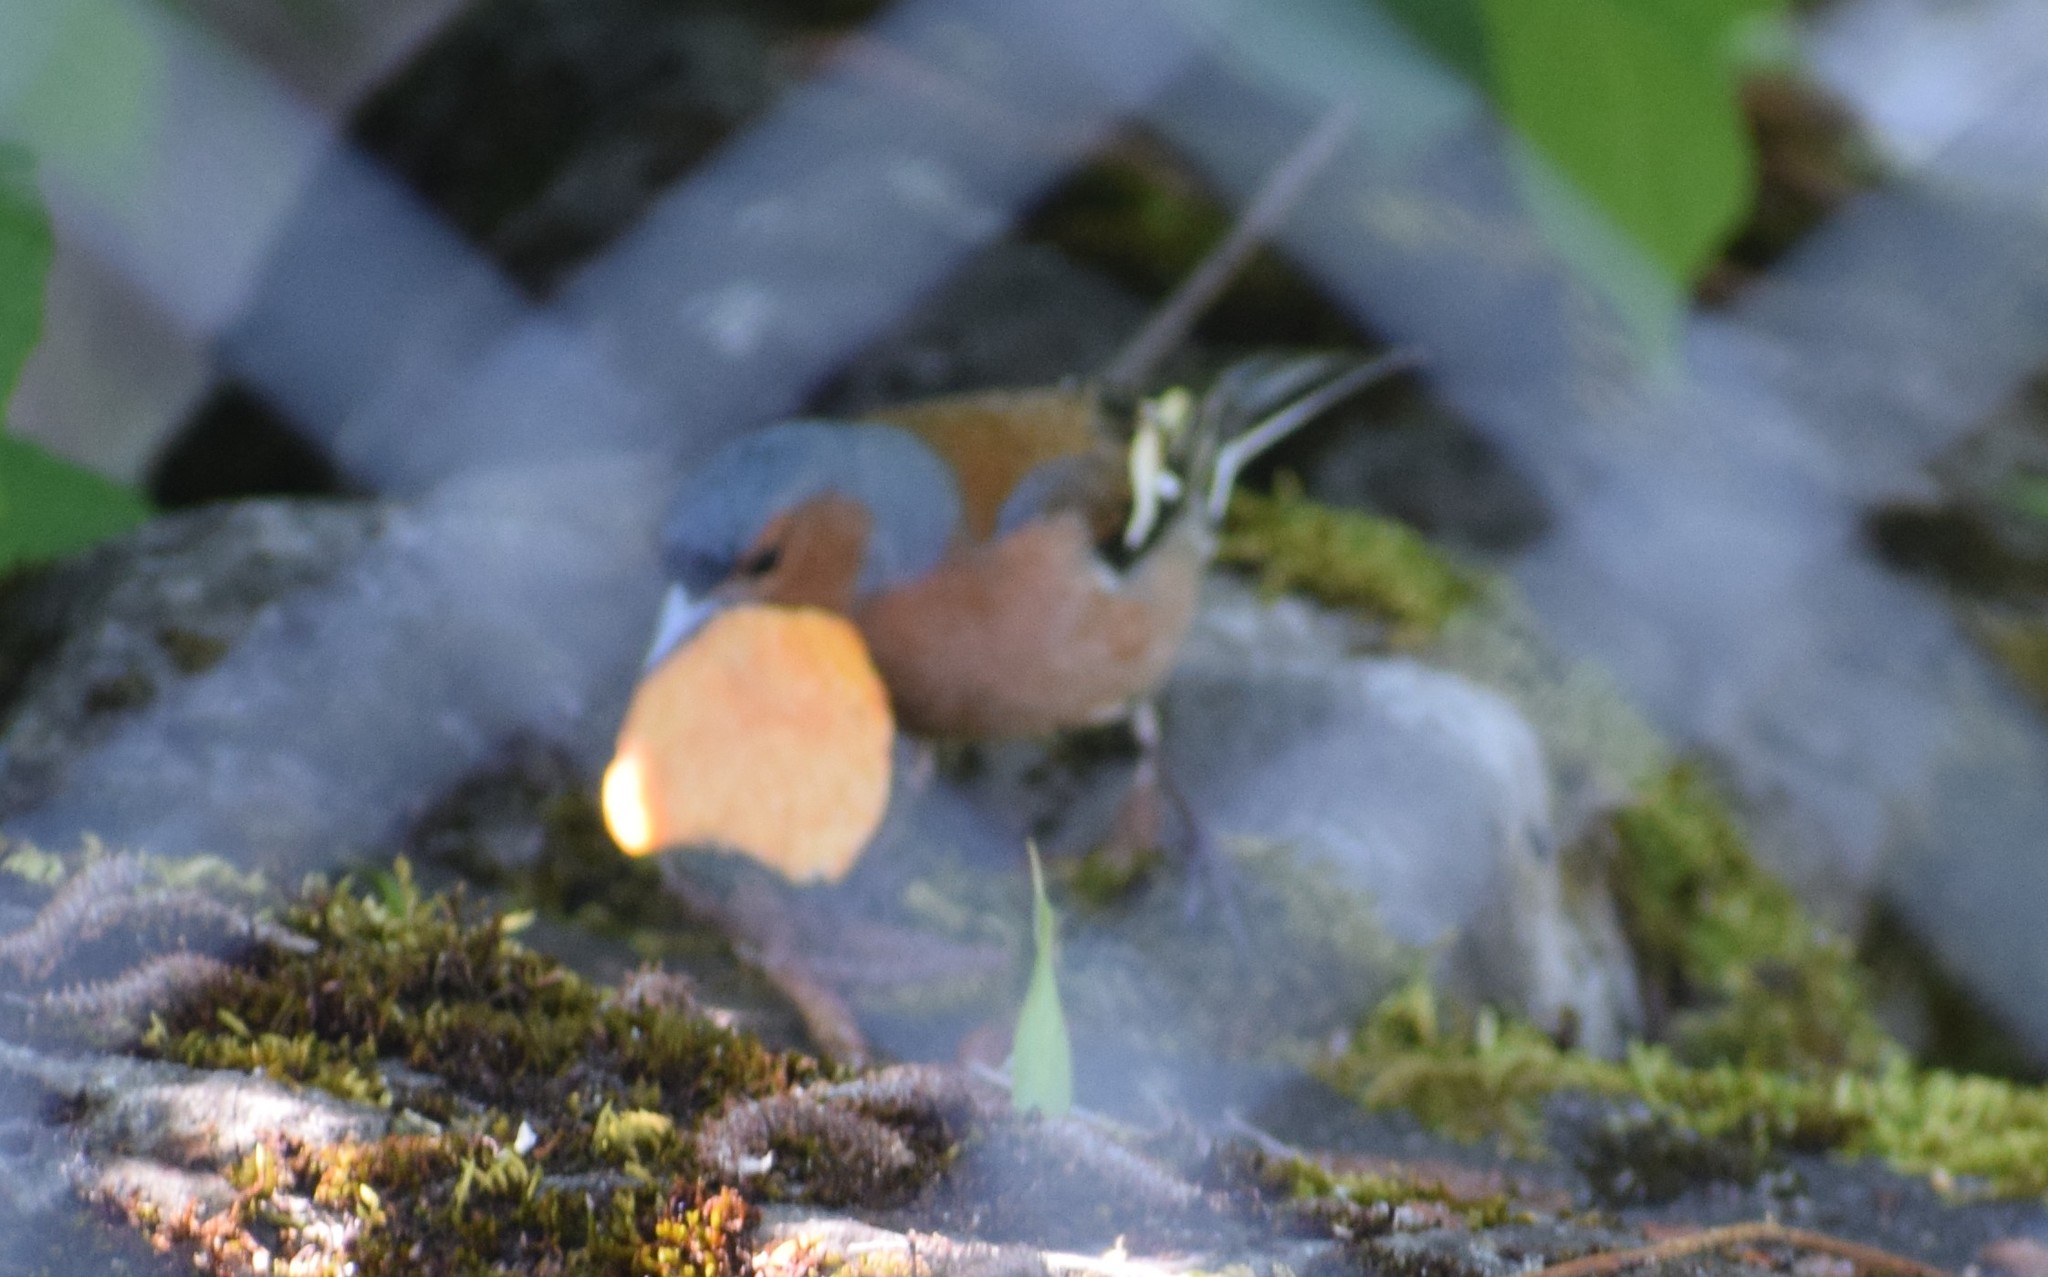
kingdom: Animalia
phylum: Chordata
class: Aves
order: Passeriformes
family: Fringillidae
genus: Fringilla
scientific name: Fringilla coelebs
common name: Common chaffinch
